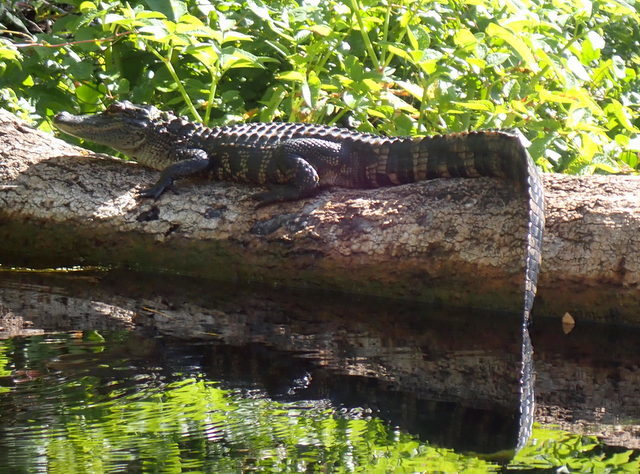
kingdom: Animalia
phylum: Chordata
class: Crocodylia
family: Alligatoridae
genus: Alligator
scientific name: Alligator mississippiensis
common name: American alligator
